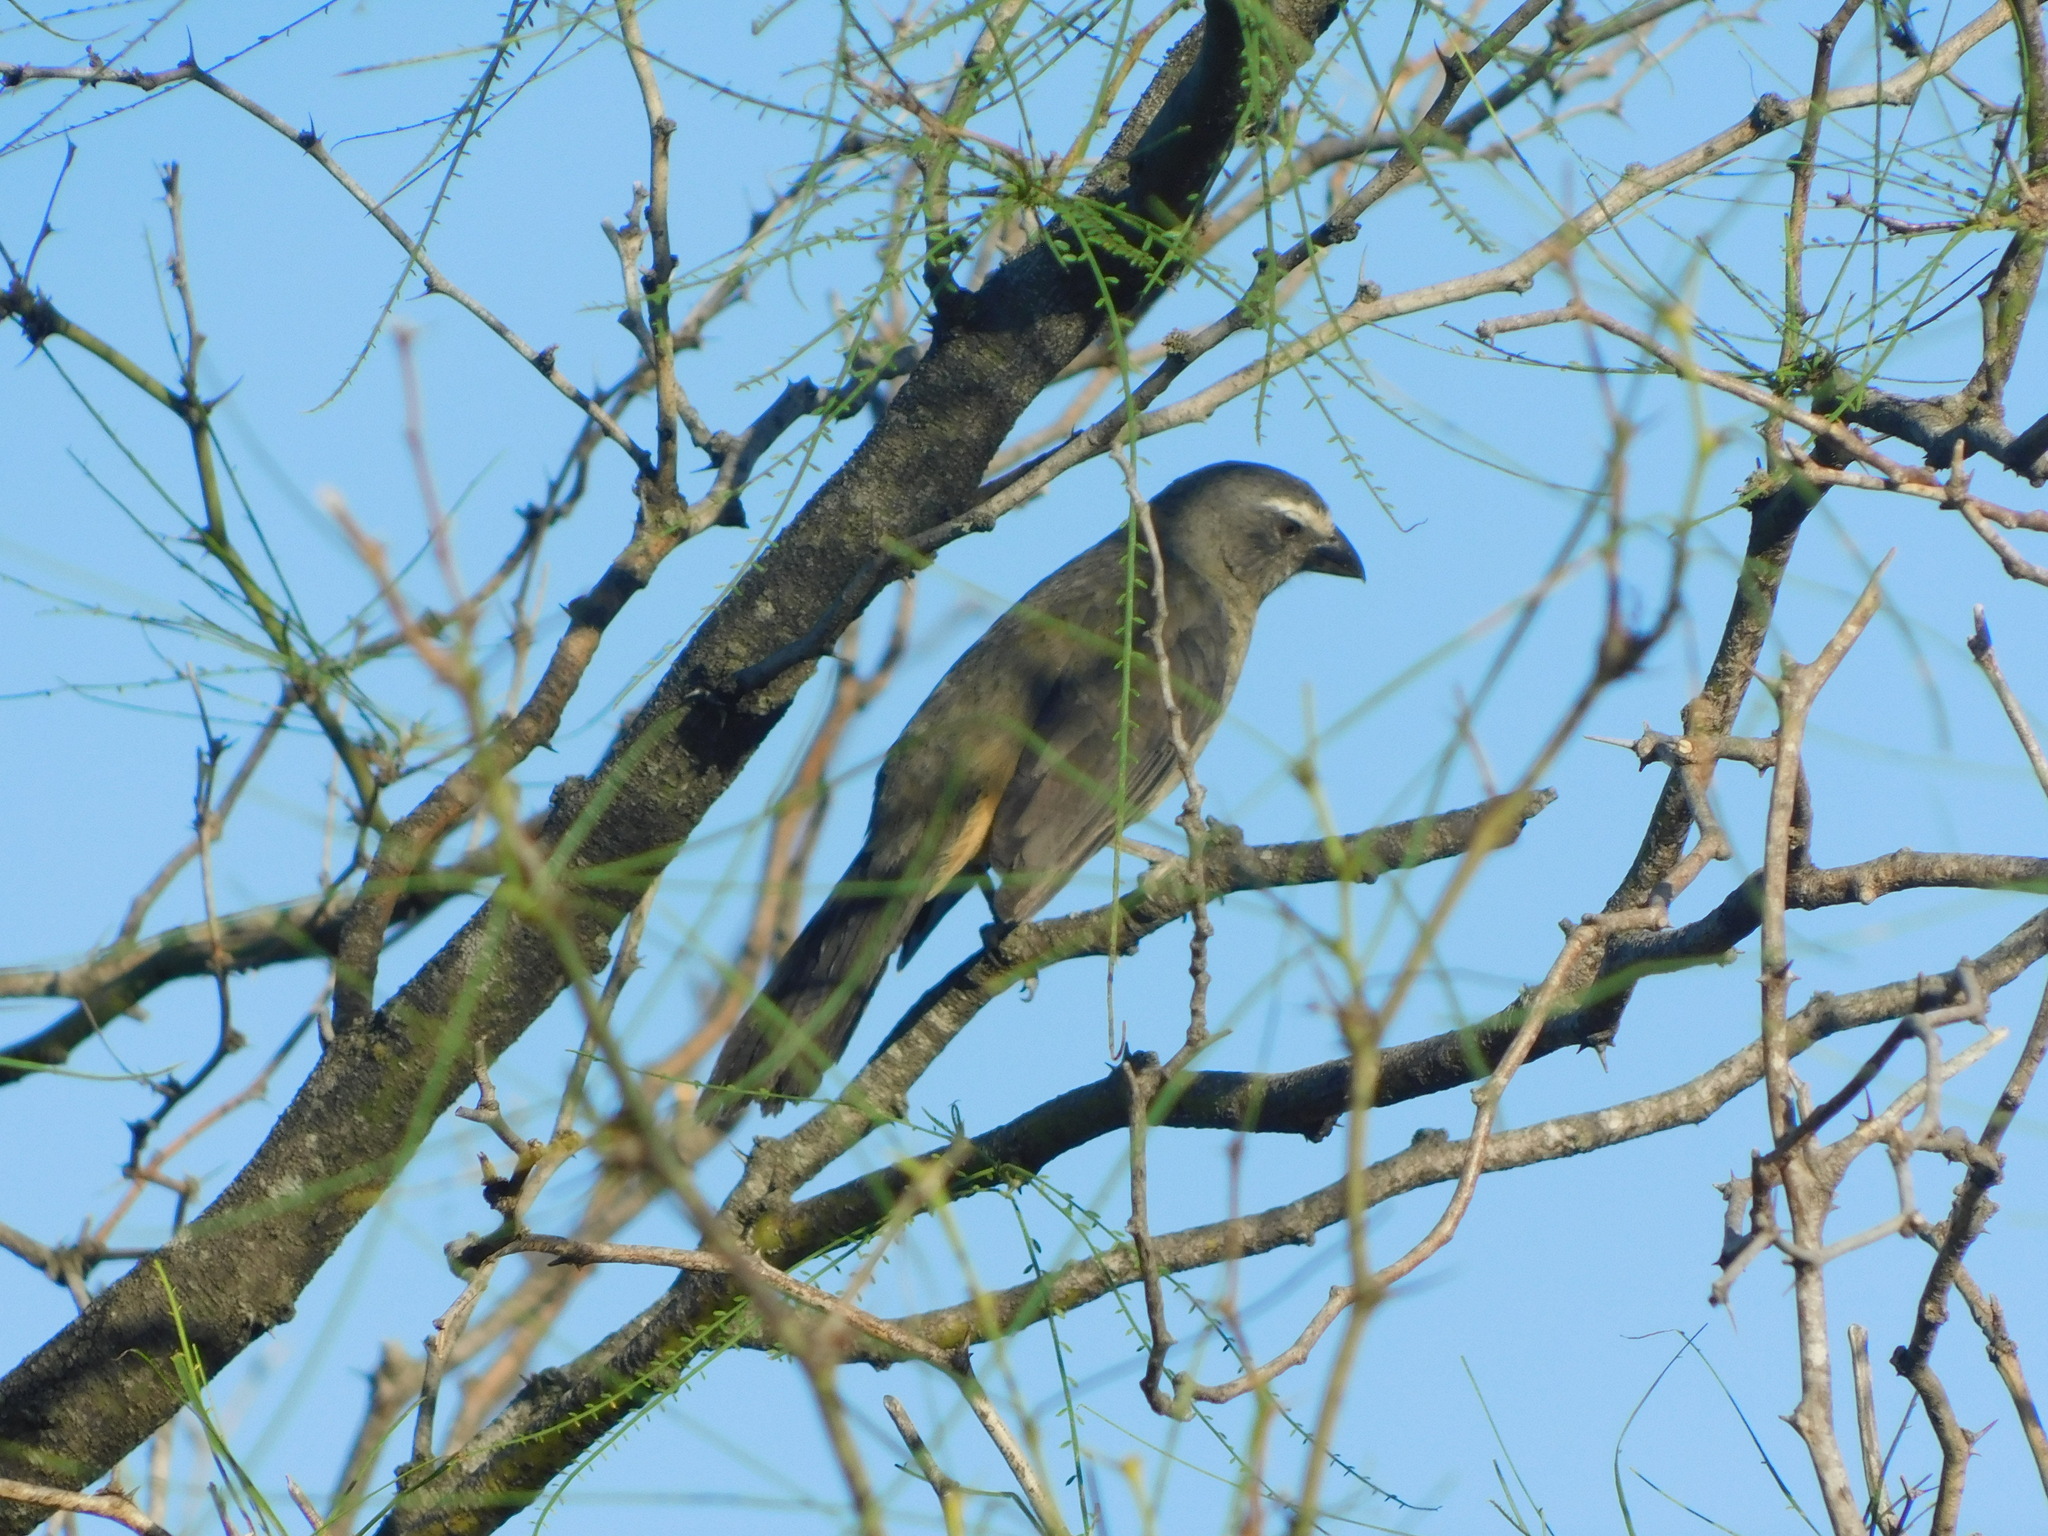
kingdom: Animalia
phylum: Chordata
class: Aves
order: Passeriformes
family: Thraupidae
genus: Saltator
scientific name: Saltator coerulescens
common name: Grayish saltator
